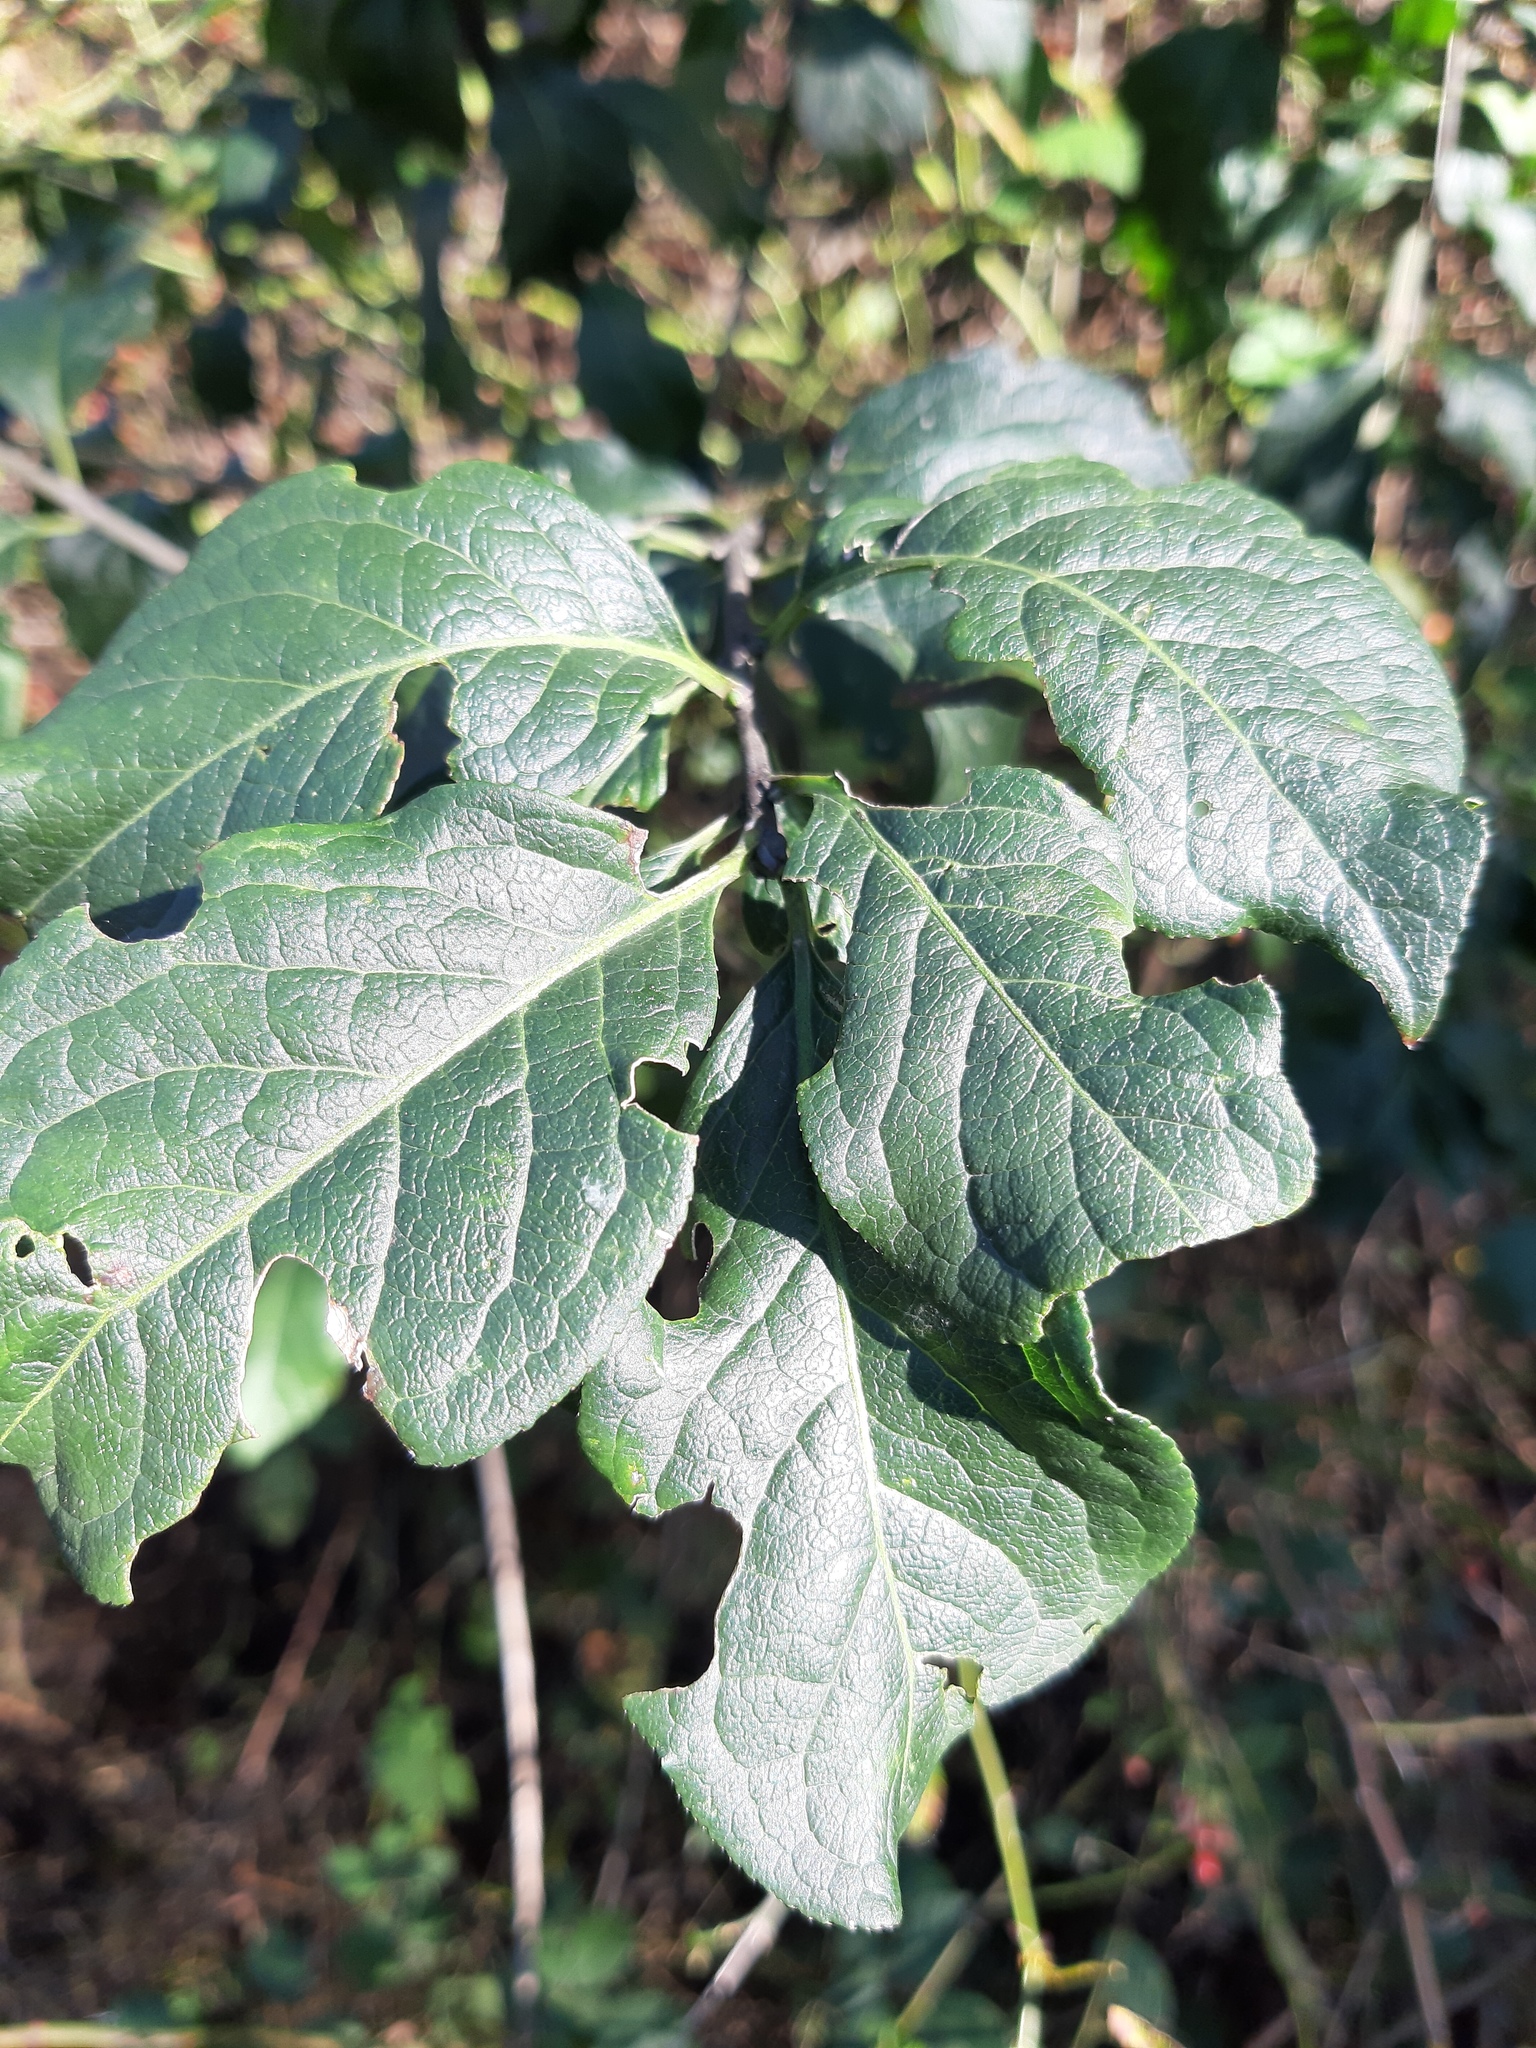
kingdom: Plantae
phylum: Tracheophyta
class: Magnoliopsida
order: Celastrales
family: Celastraceae
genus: Euonymus
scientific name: Euonymus europaeus
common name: Spindle
